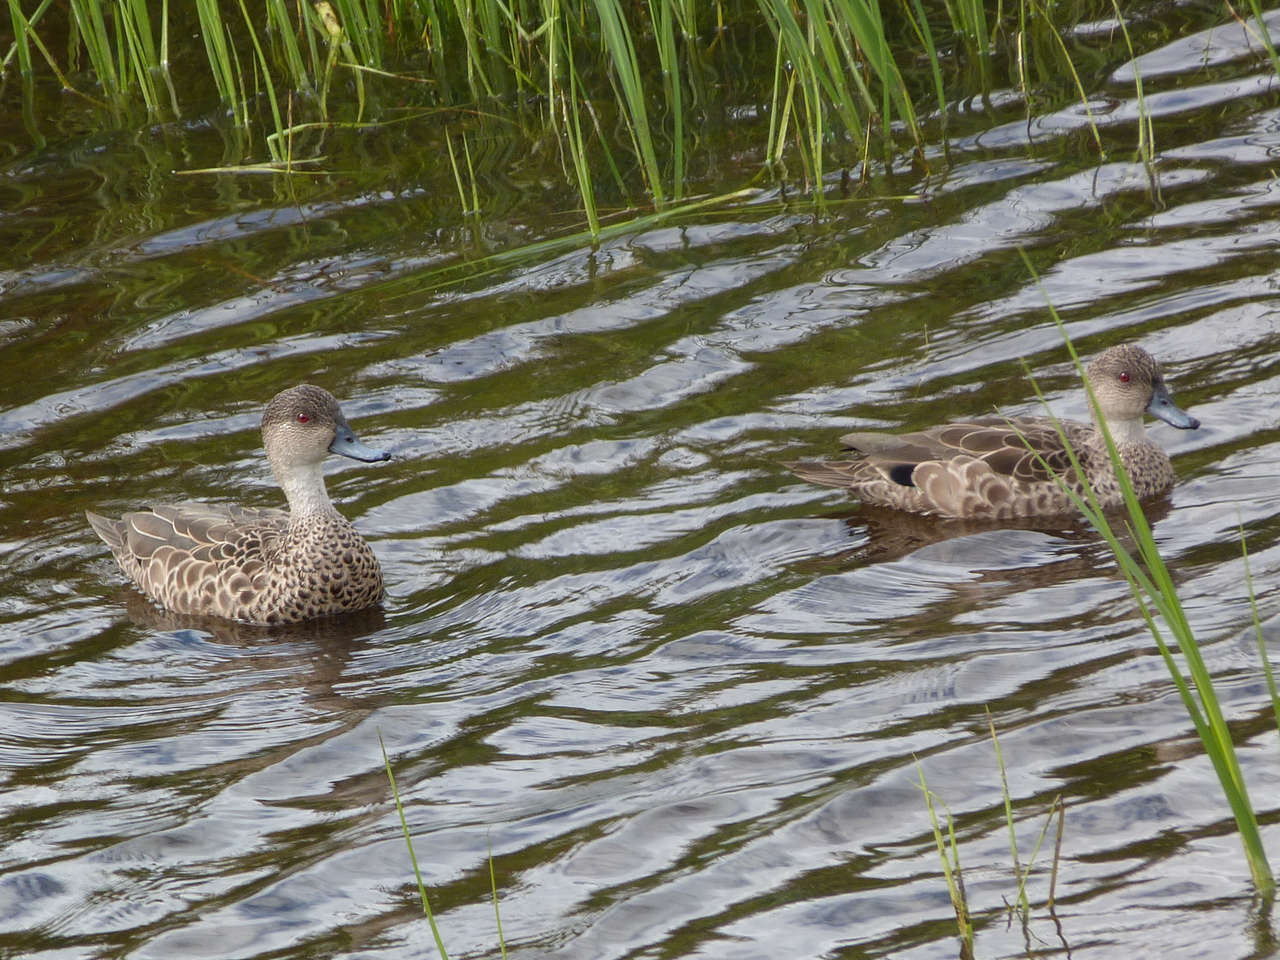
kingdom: Animalia
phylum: Chordata
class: Aves
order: Anseriformes
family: Anatidae
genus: Anas
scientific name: Anas gracilis
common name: Grey teal
